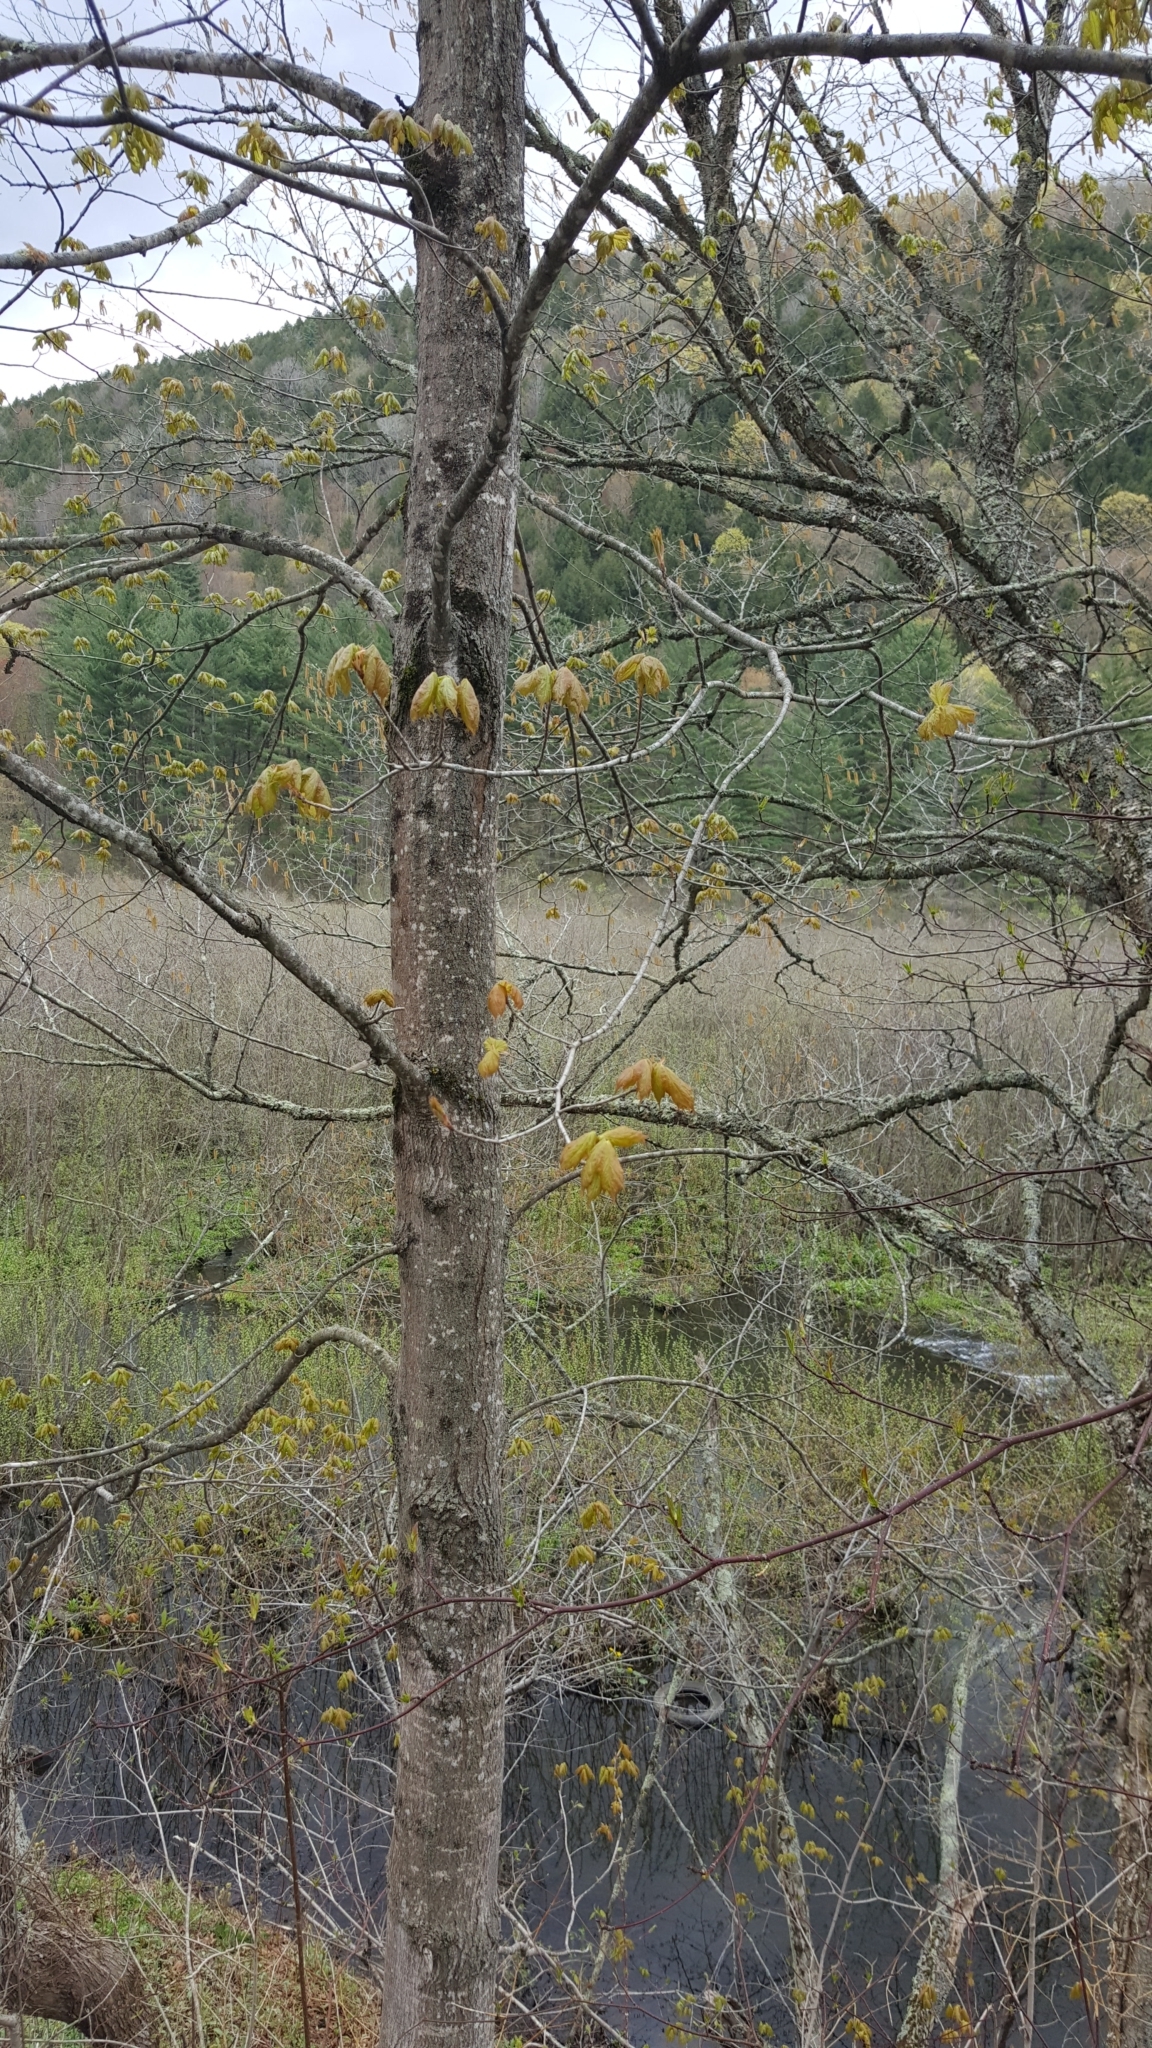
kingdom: Plantae
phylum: Tracheophyta
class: Magnoliopsida
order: Sapindales
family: Sapindaceae
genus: Acer
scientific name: Acer saccharum
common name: Sugar maple
